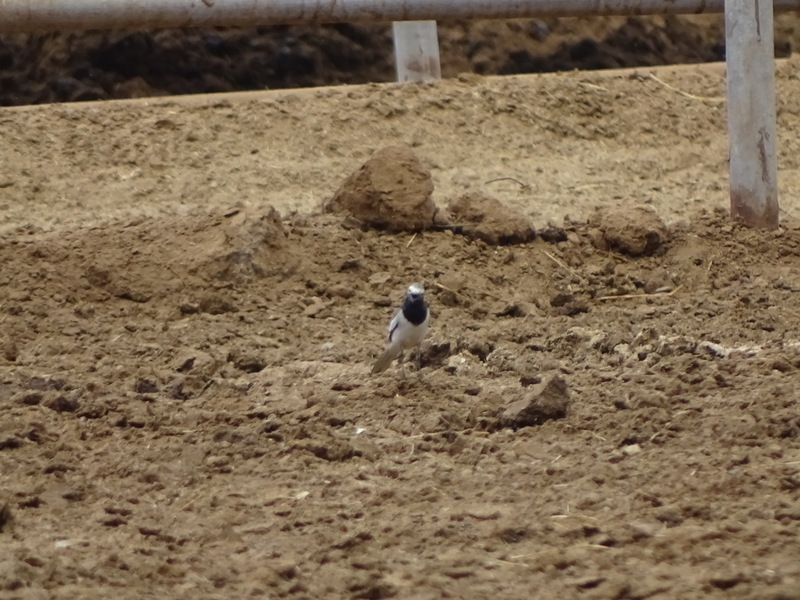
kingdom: Animalia
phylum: Chordata
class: Aves
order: Passeriformes
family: Motacillidae
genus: Motacilla
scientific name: Motacilla alba
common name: White wagtail
